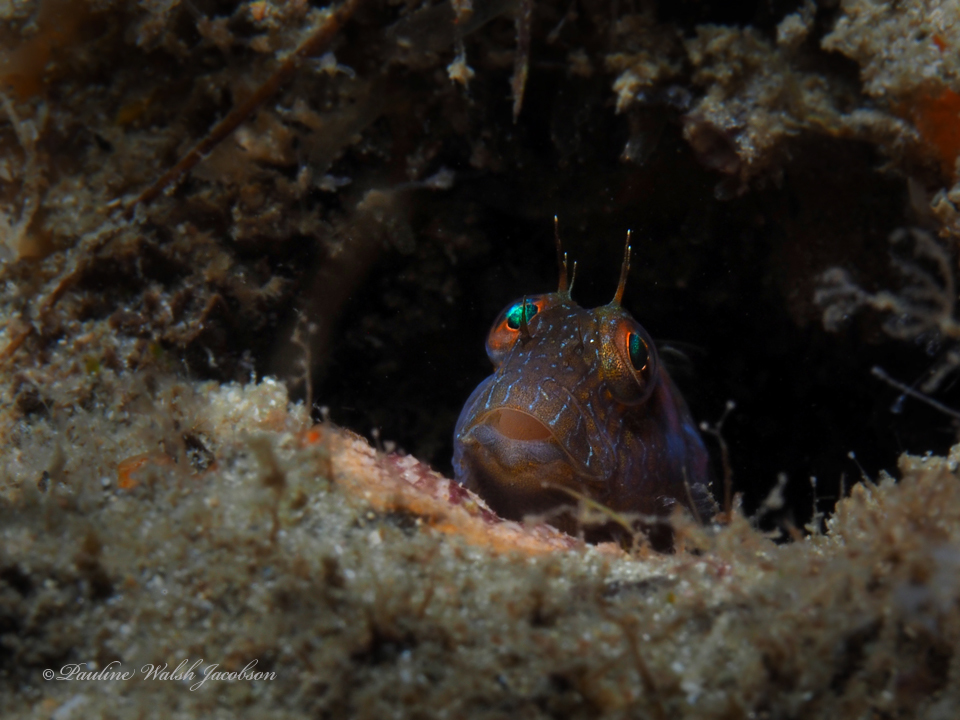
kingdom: Animalia
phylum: Chordata
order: Perciformes
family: Blenniidae
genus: Parablennius
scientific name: Parablennius marmoreus
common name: Seaweed blenny
